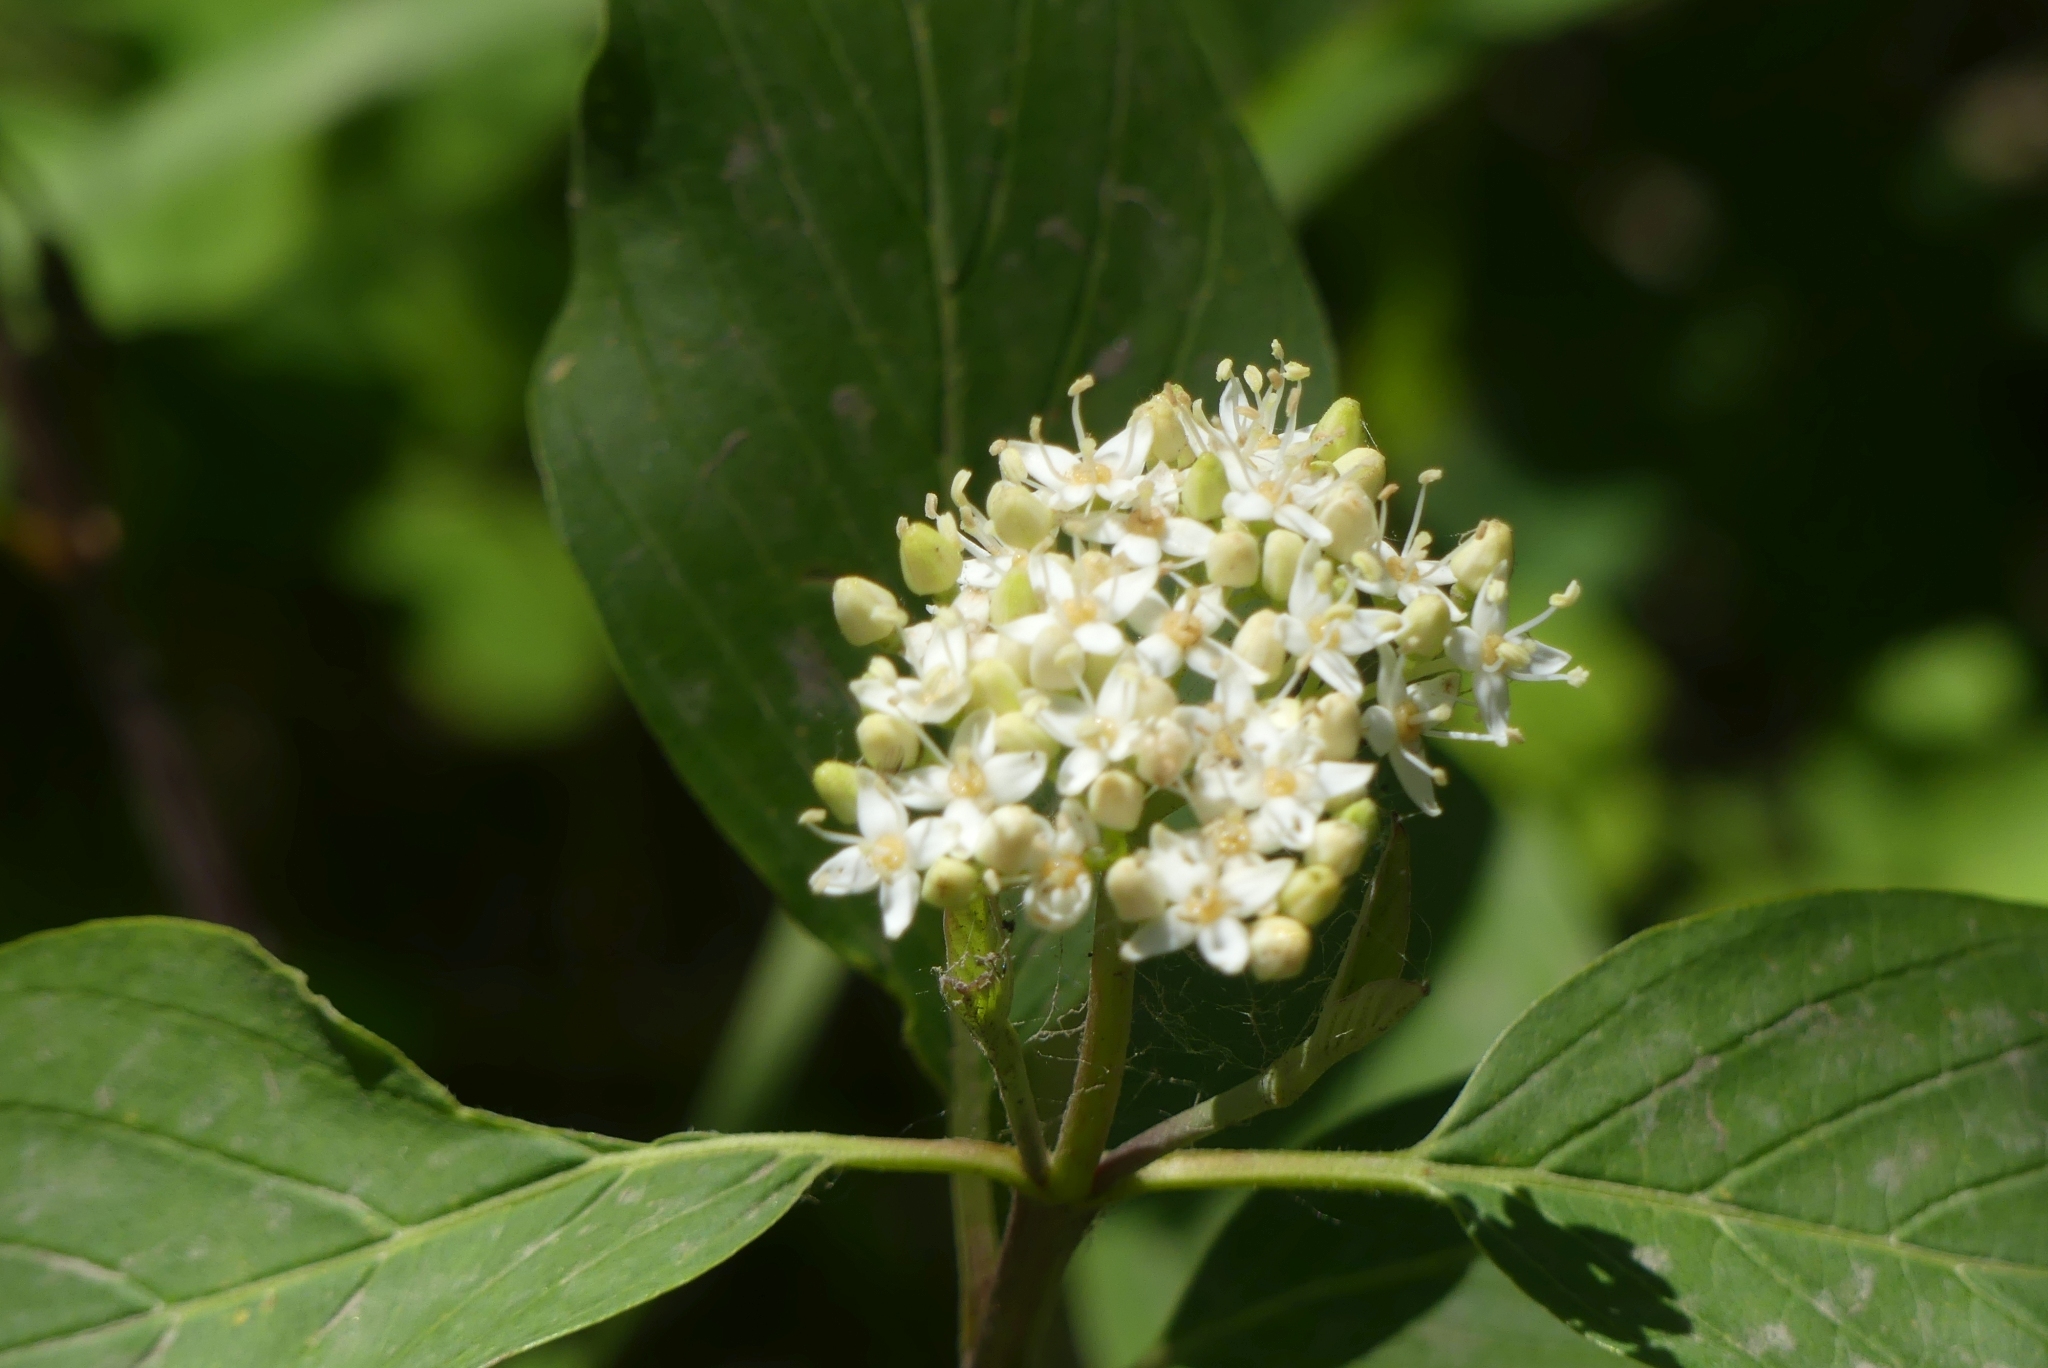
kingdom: Plantae
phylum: Tracheophyta
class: Magnoliopsida
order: Cornales
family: Cornaceae
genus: Cornus
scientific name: Cornus sericea
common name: Red-osier dogwood
